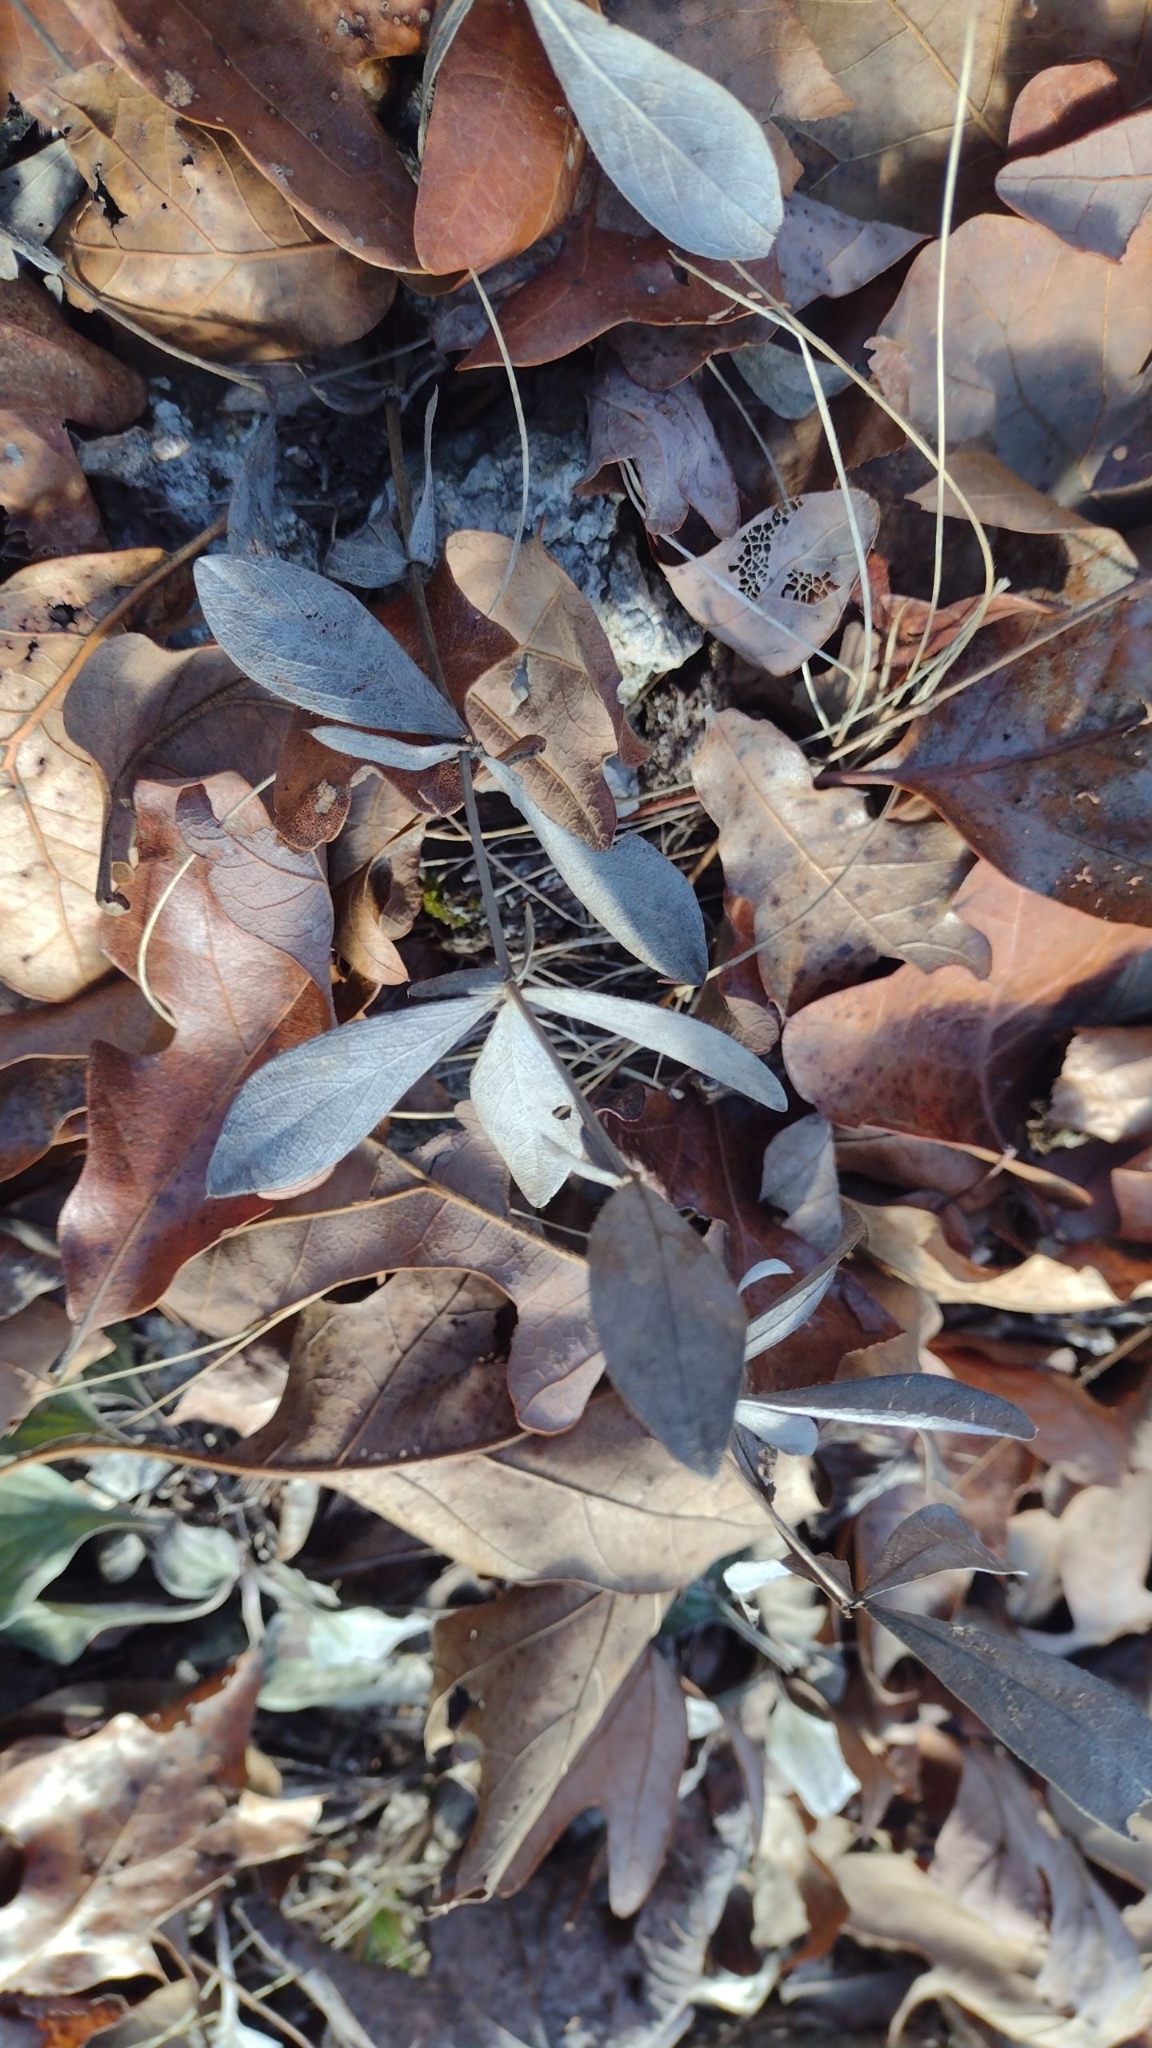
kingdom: Plantae
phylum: Tracheophyta
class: Magnoliopsida
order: Fabales
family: Fabaceae
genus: Baptisia
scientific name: Baptisia bracteata
